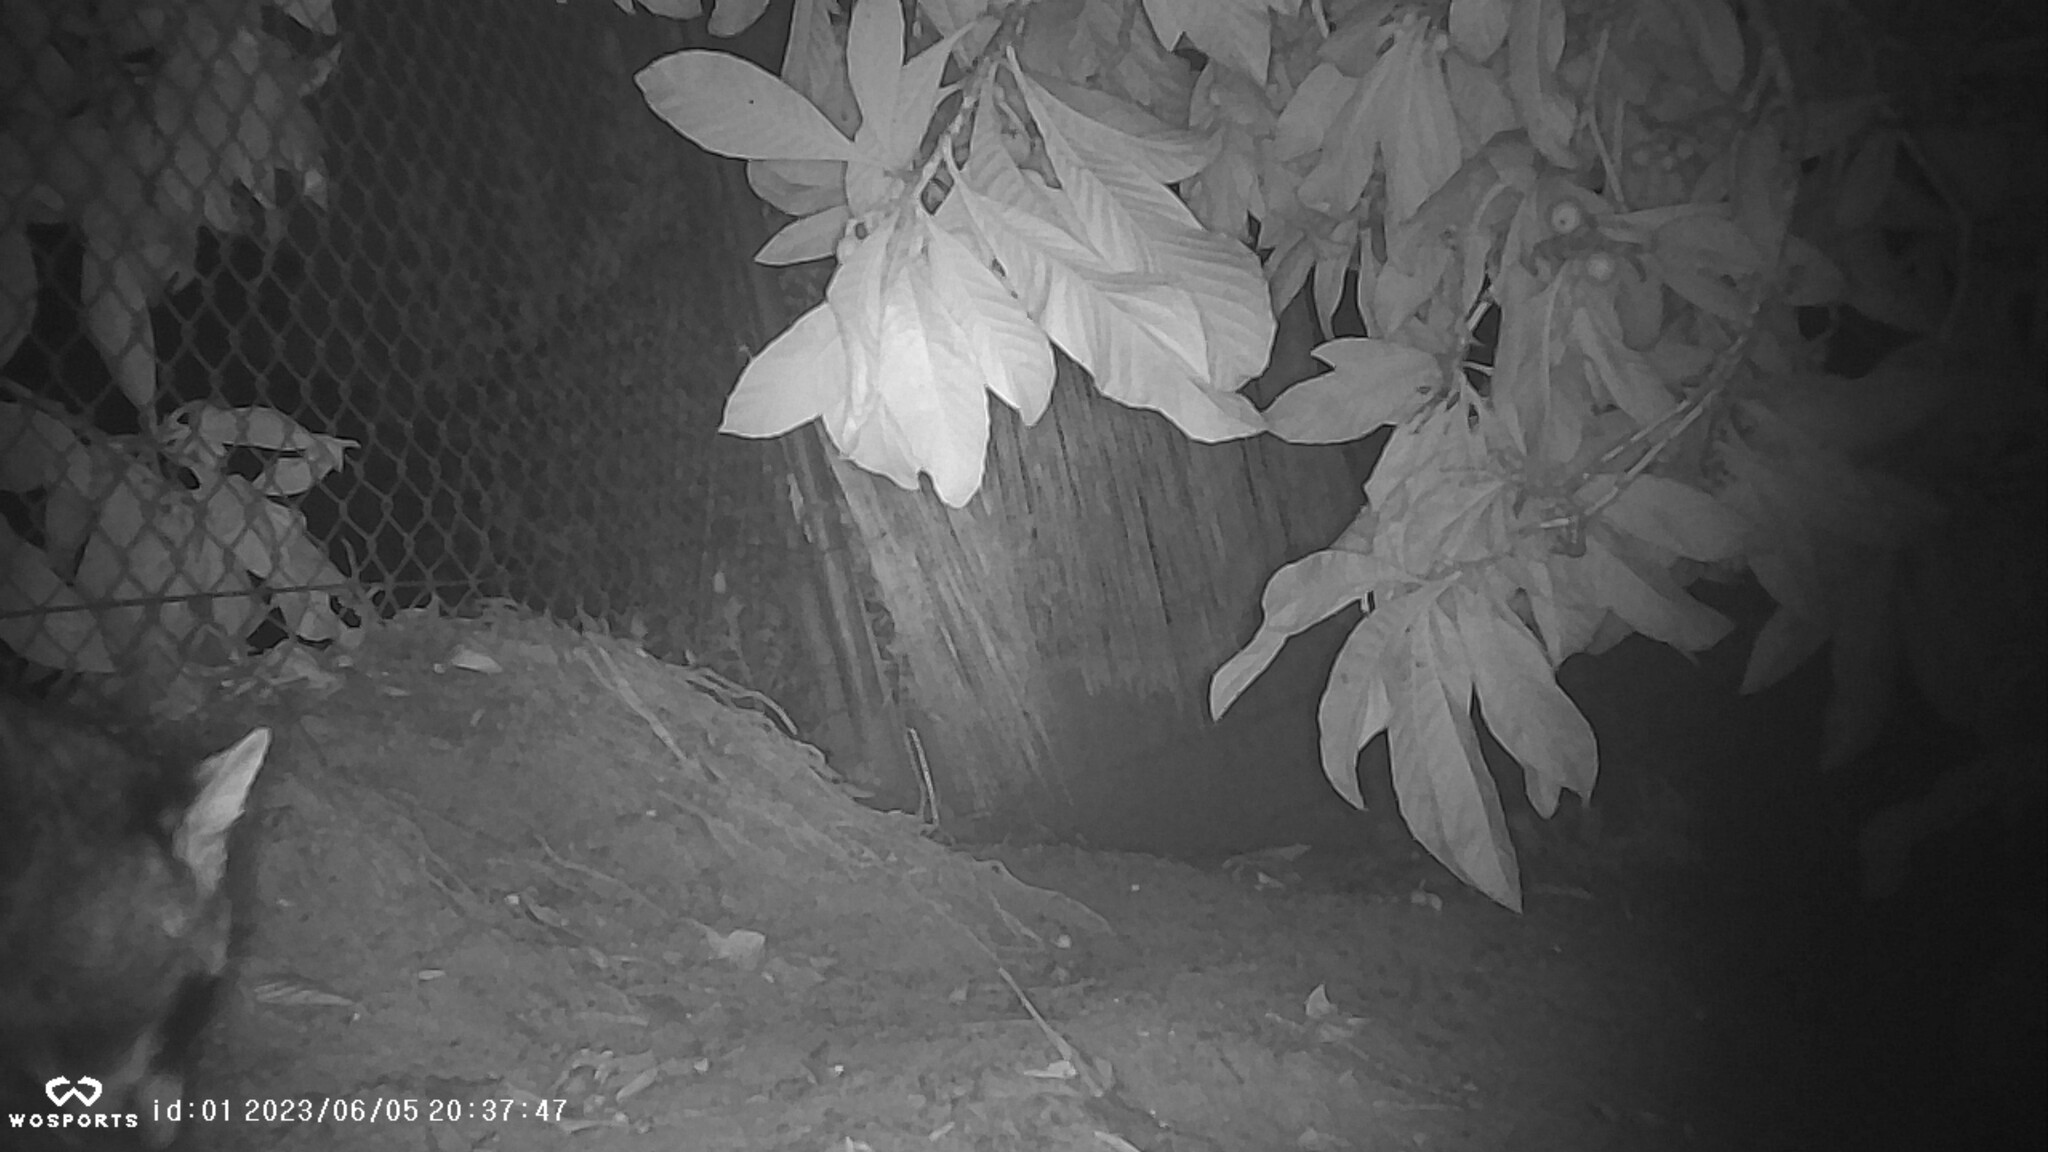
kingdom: Animalia
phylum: Chordata
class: Mammalia
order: Carnivora
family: Procyonidae
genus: Procyon
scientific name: Procyon lotor
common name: Raccoon
